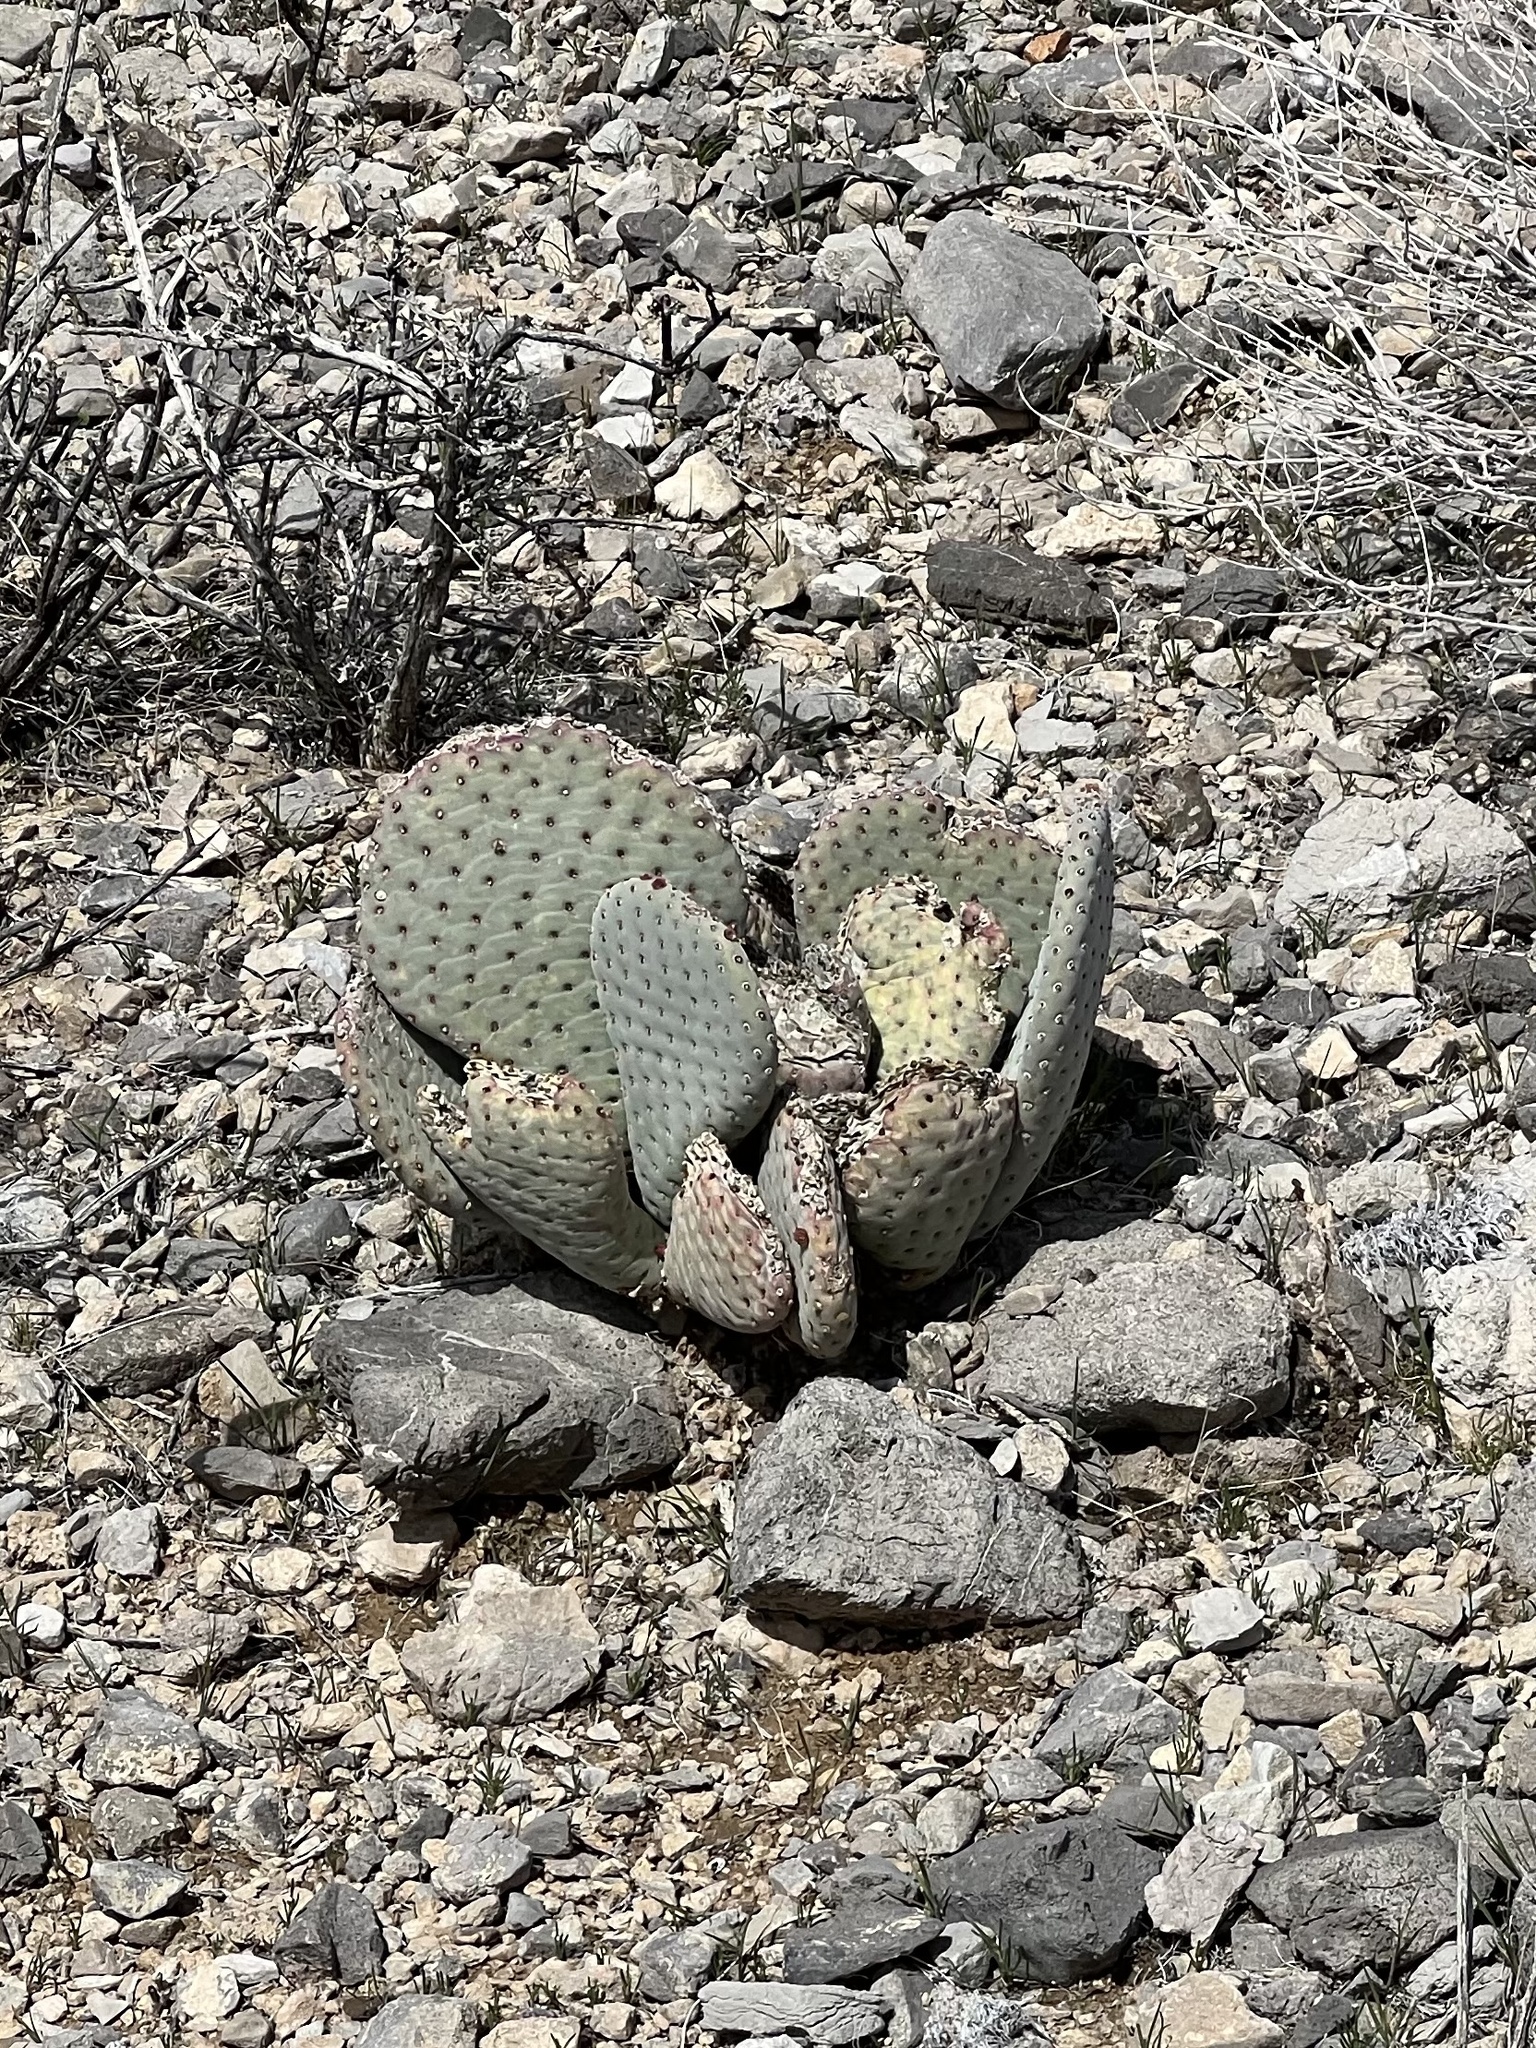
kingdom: Plantae
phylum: Tracheophyta
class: Magnoliopsida
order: Caryophyllales
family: Cactaceae
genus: Opuntia
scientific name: Opuntia basilaris
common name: Beavertail prickly-pear
